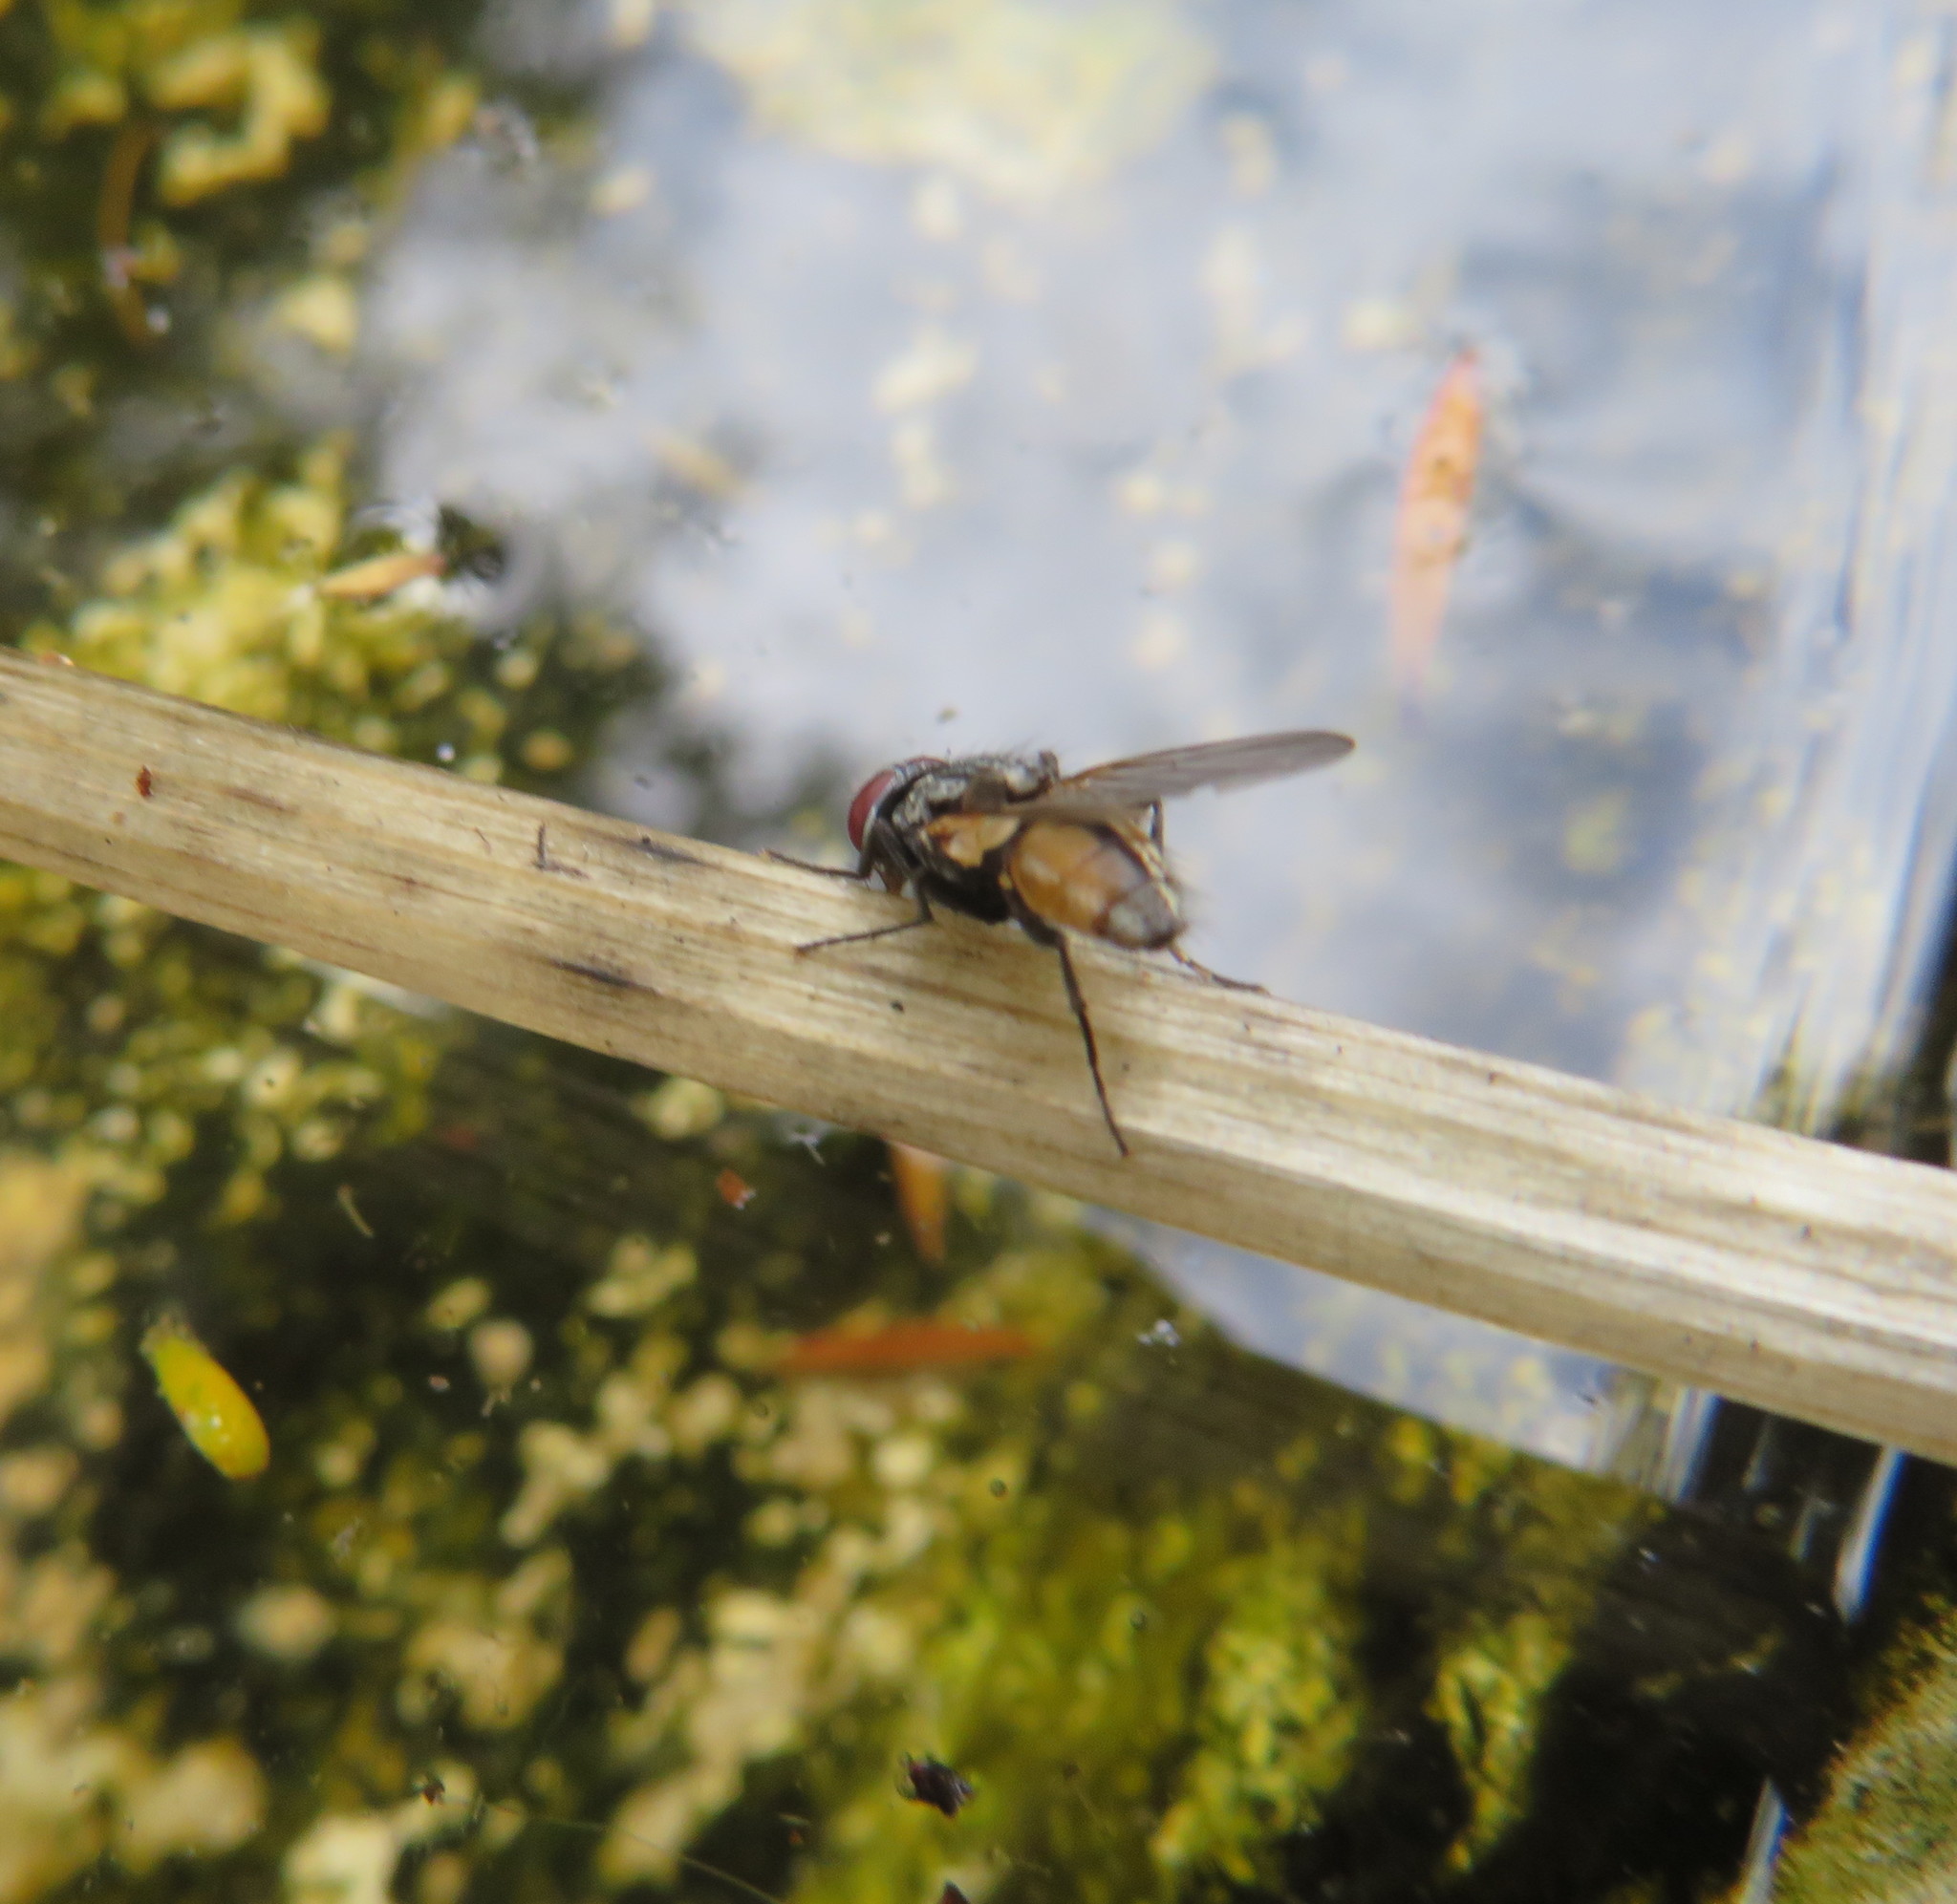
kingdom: Animalia
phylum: Arthropoda
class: Insecta
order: Diptera
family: Muscidae
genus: Musca
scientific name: Musca domestica
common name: House fly
